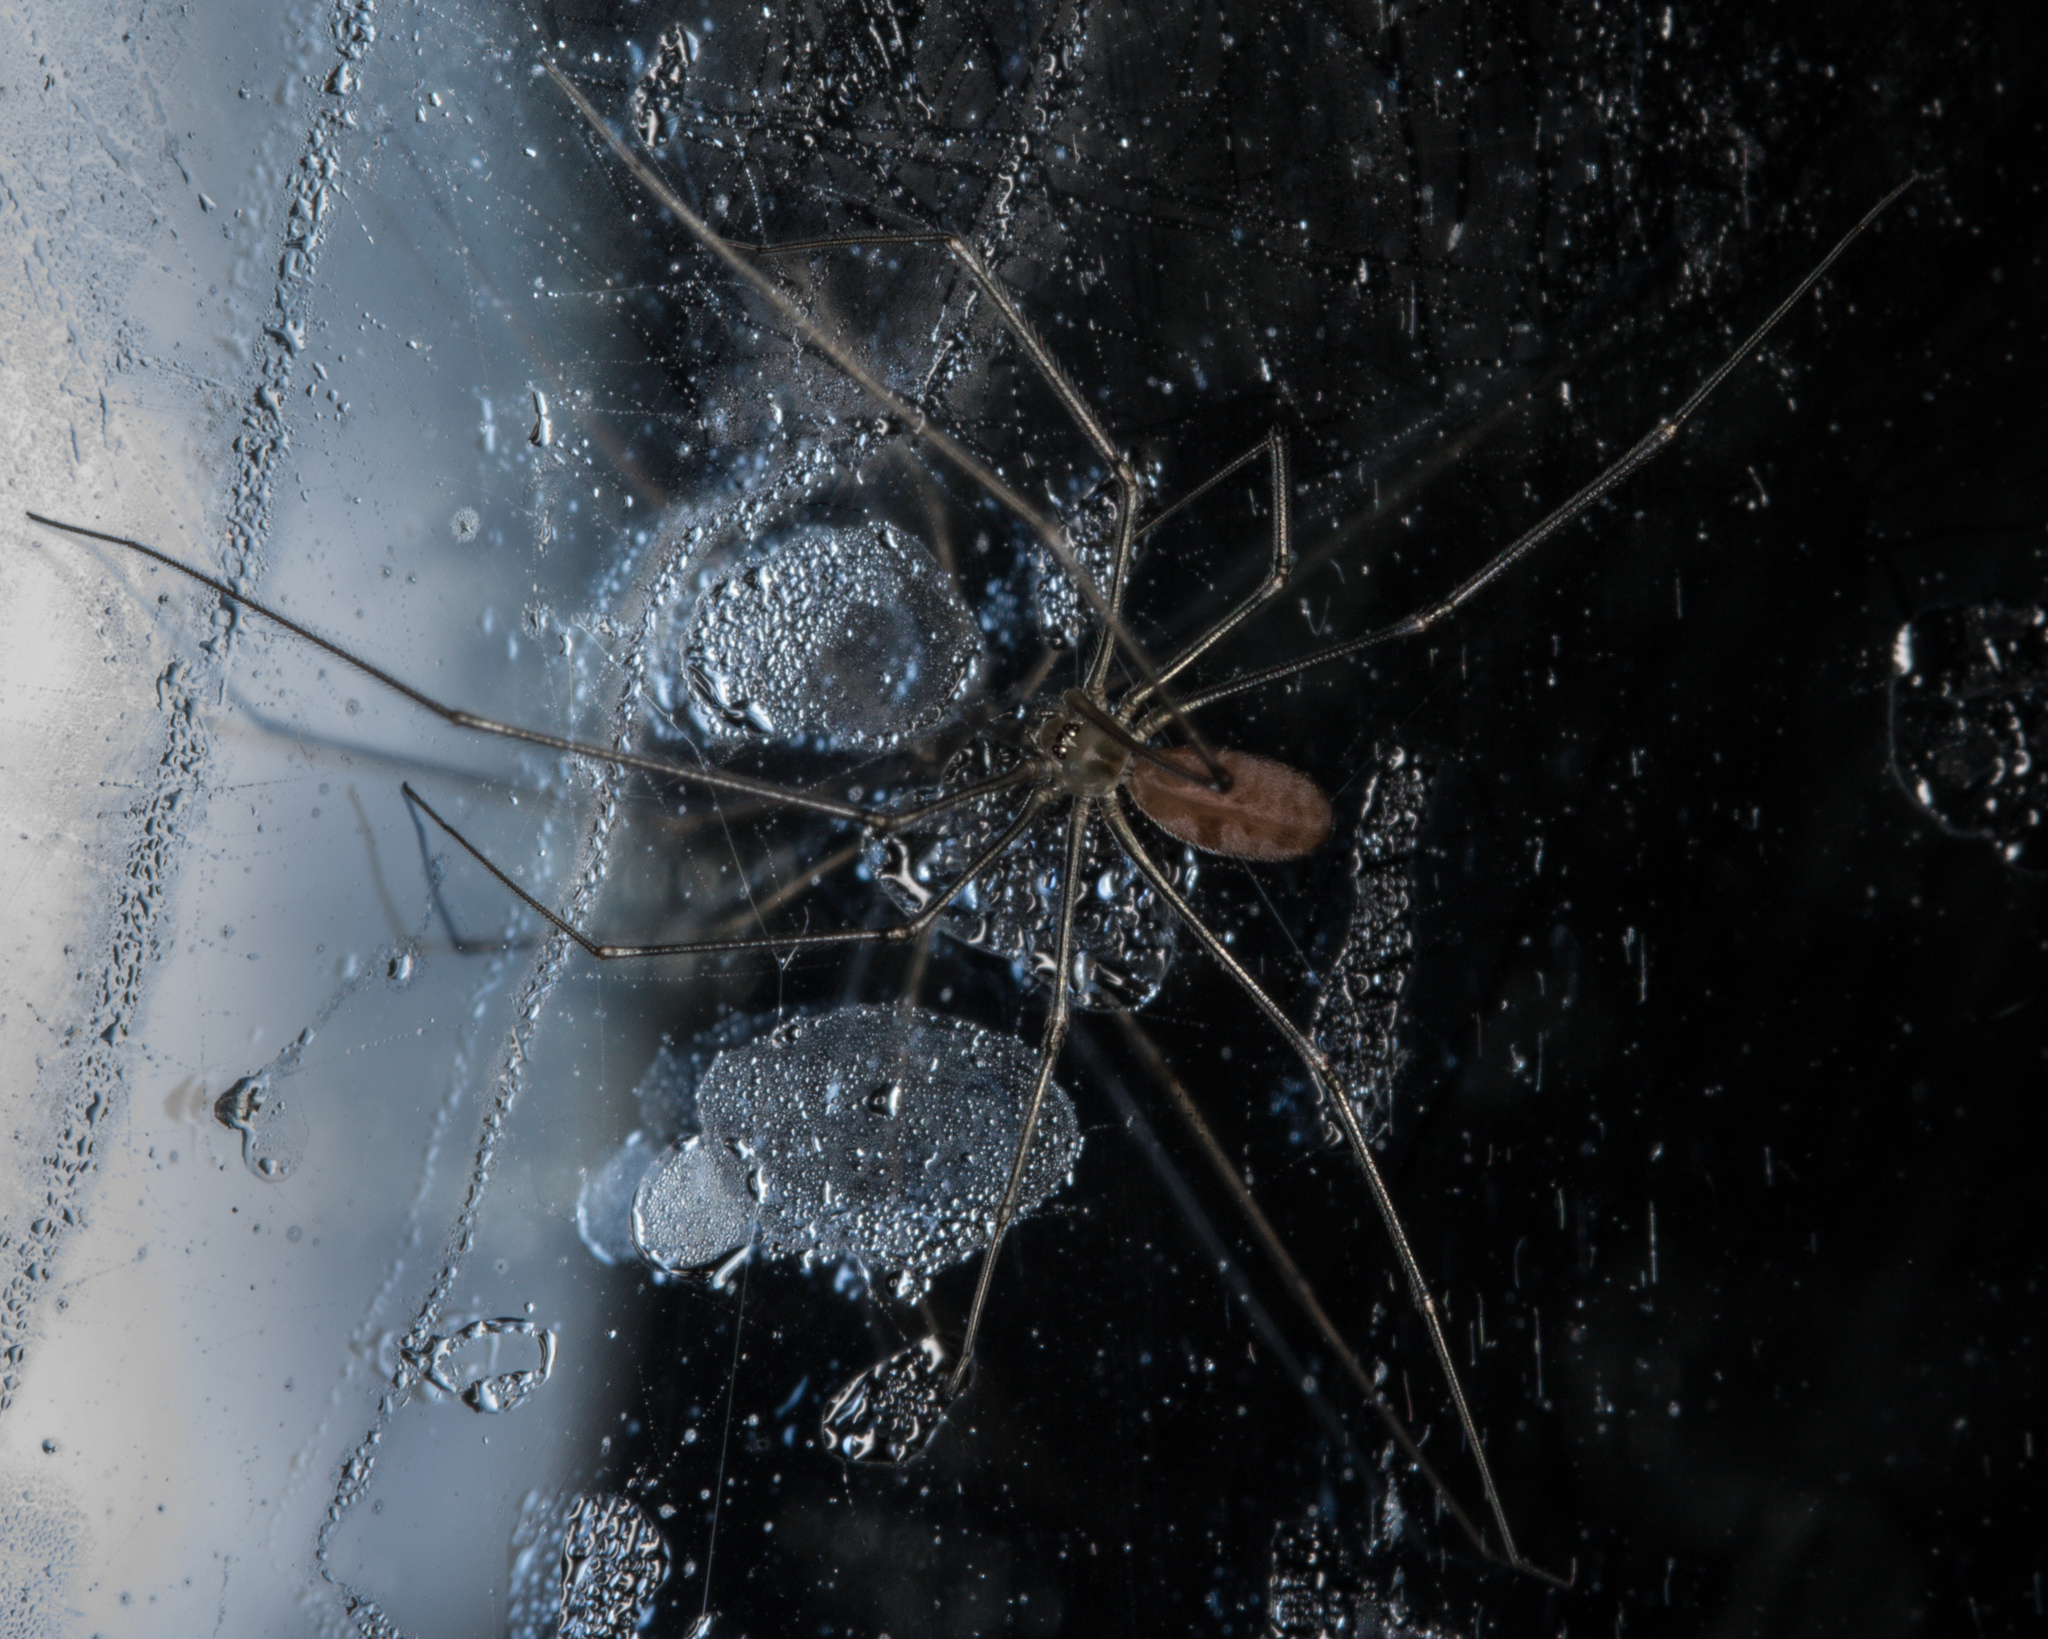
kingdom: Animalia
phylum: Arthropoda
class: Arachnida
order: Araneae
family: Pholcidae
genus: Pholcus
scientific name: Pholcus phalangioides
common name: Longbodied cellar spider
